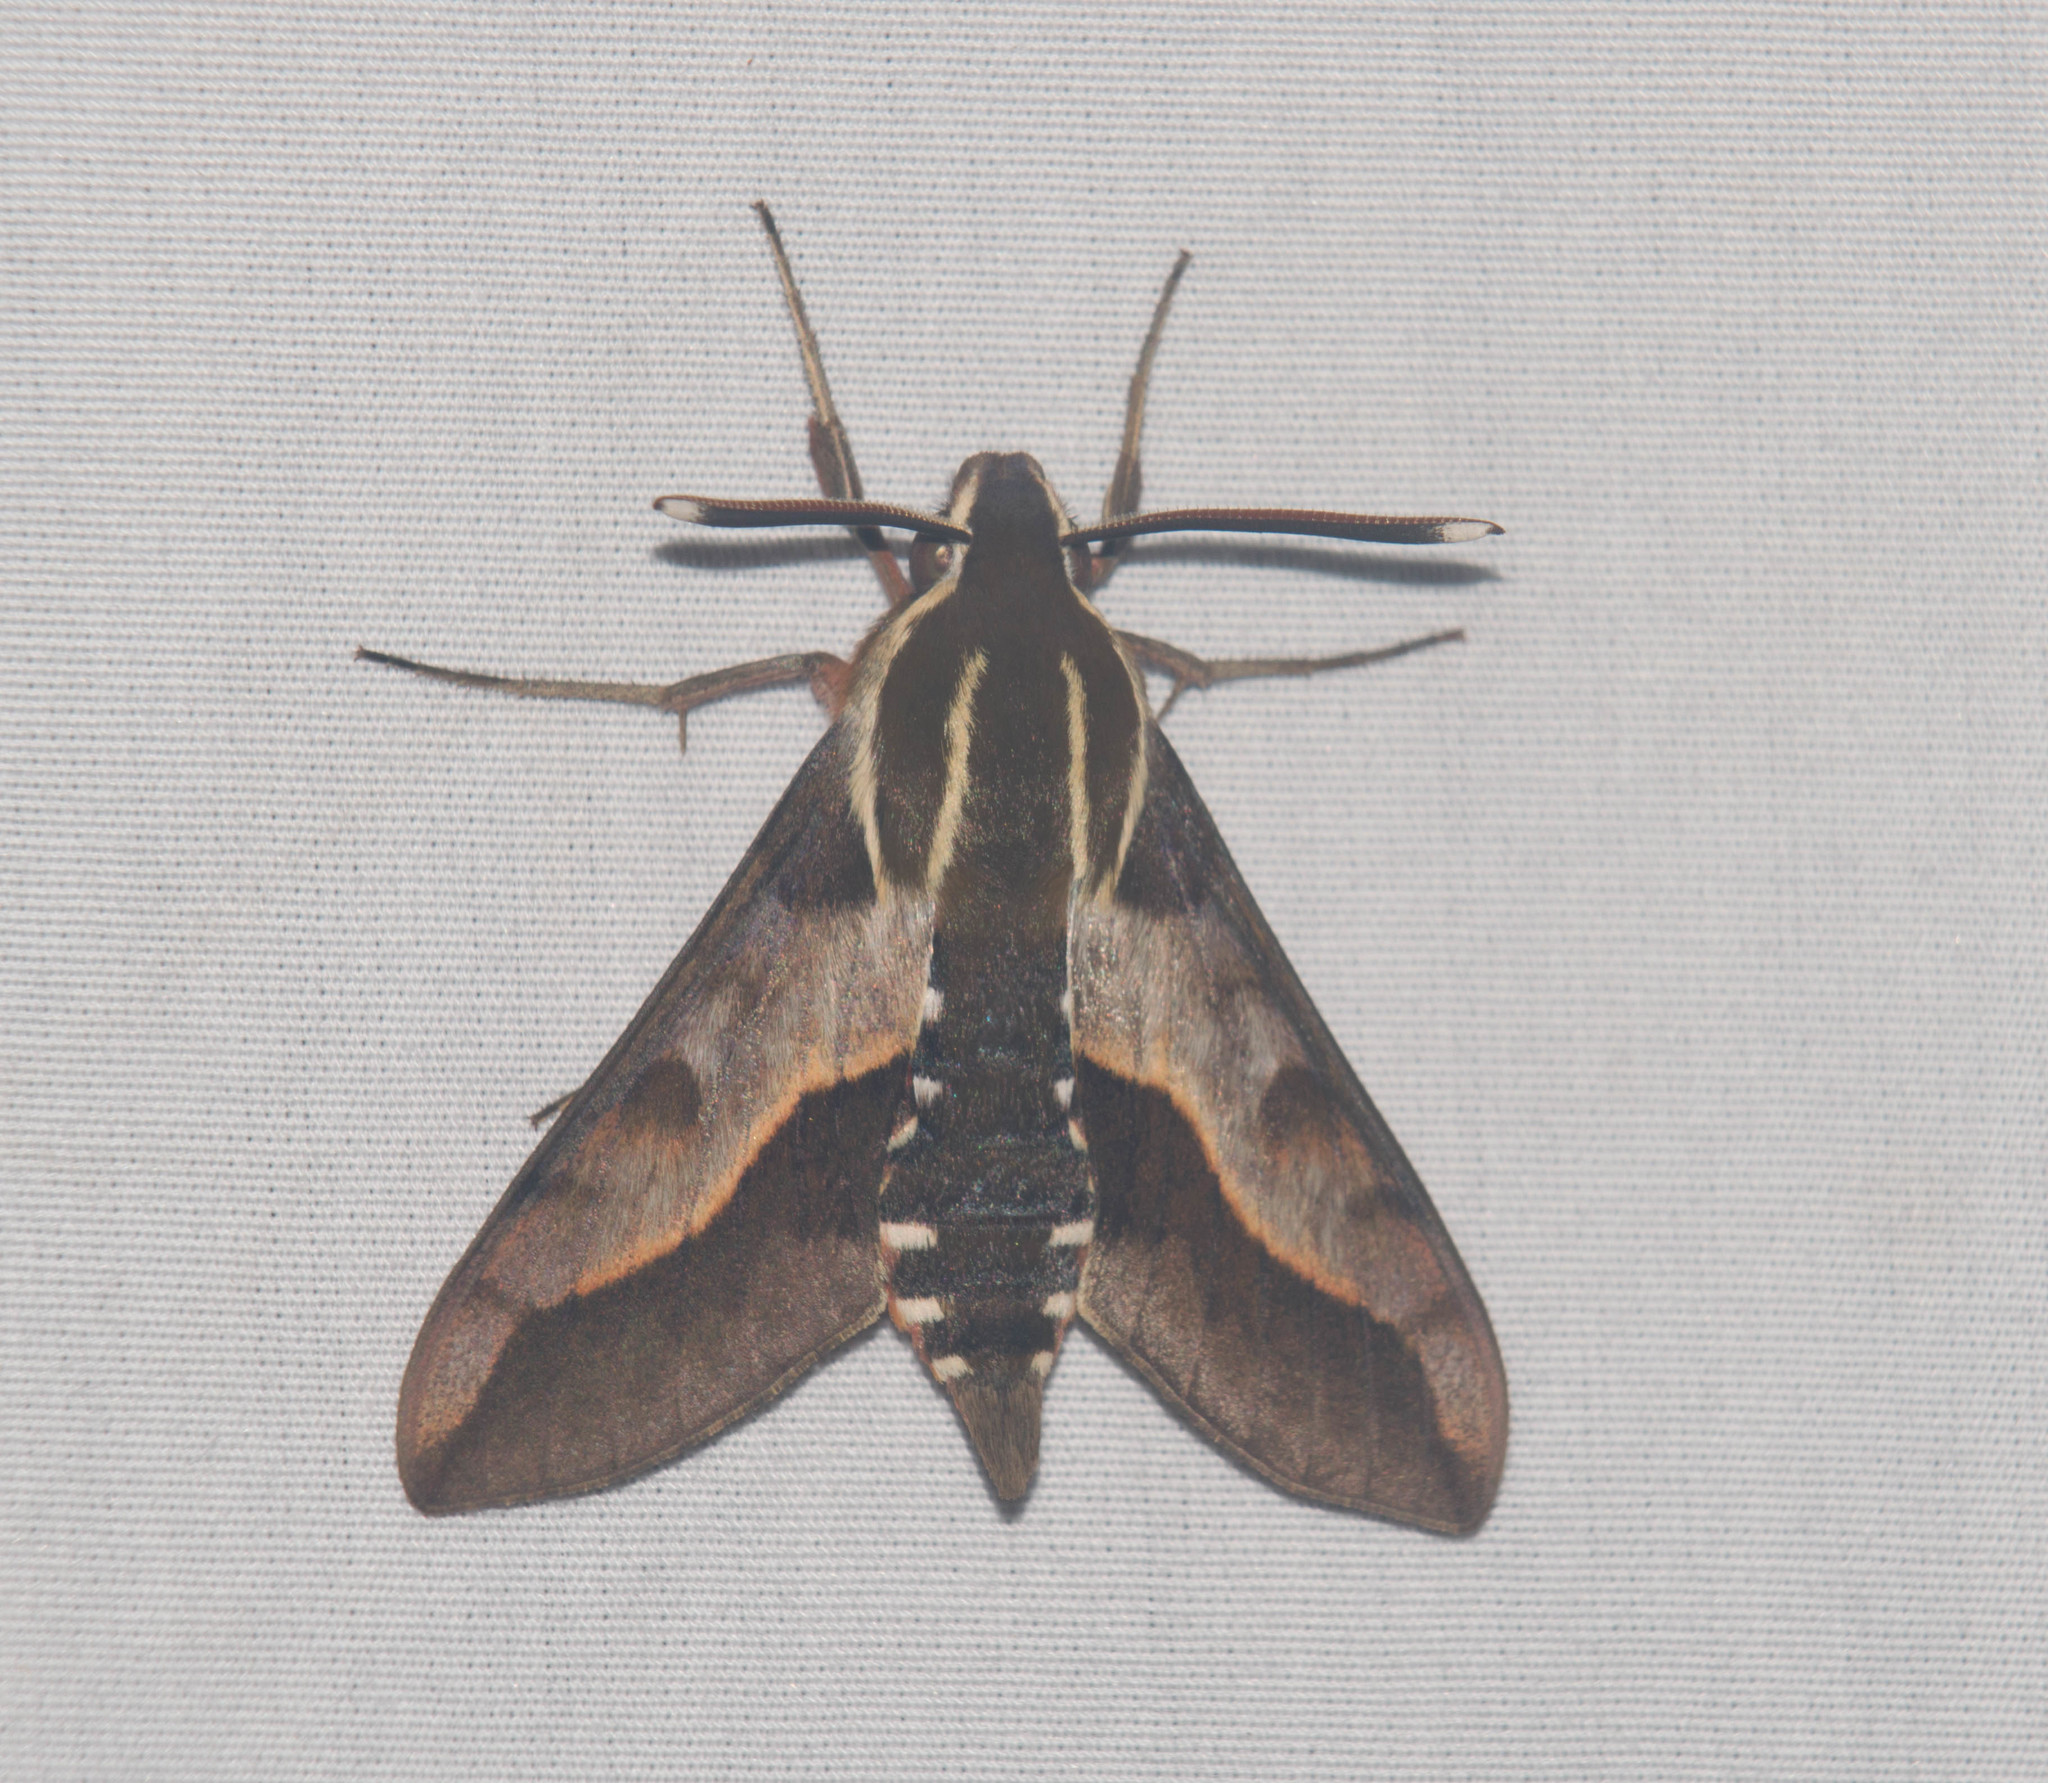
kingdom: Animalia
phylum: Arthropoda
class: Insecta
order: Lepidoptera
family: Sphingidae
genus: Hyles
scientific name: Hyles calida
